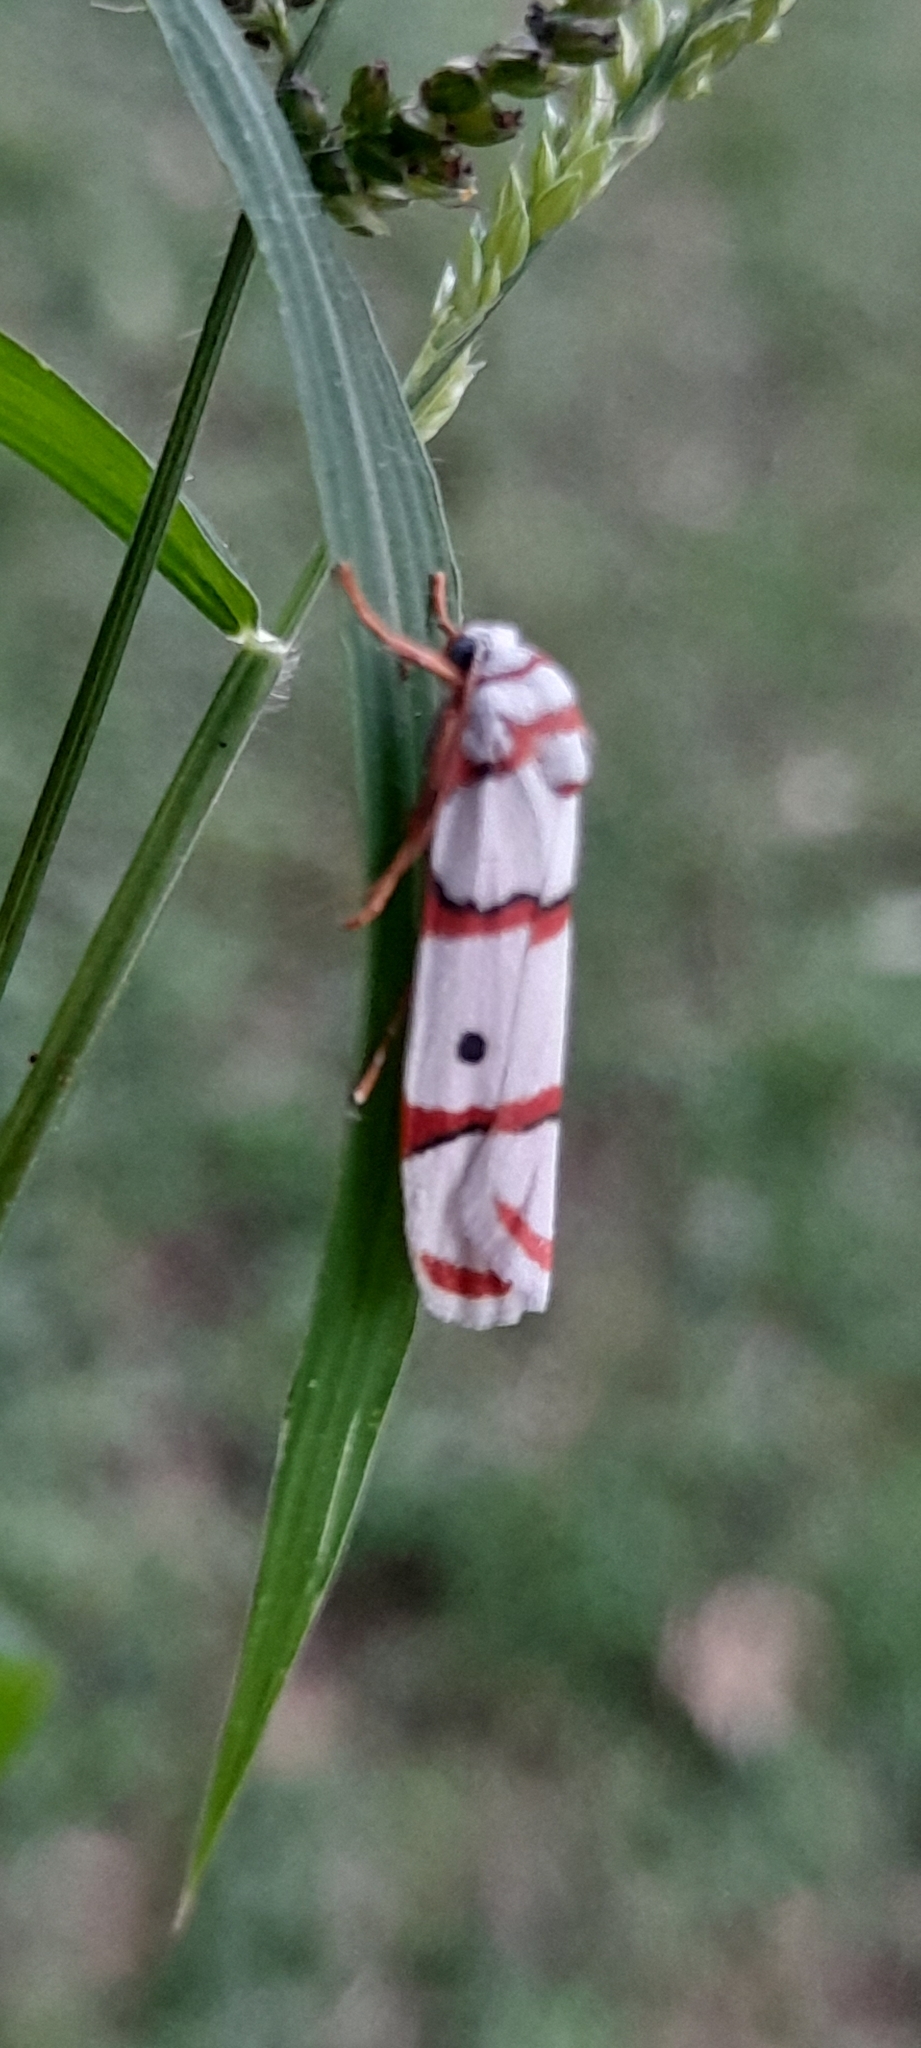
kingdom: Animalia
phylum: Arthropoda
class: Insecta
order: Lepidoptera
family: Erebidae
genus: Cyana
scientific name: Cyana peregrina
